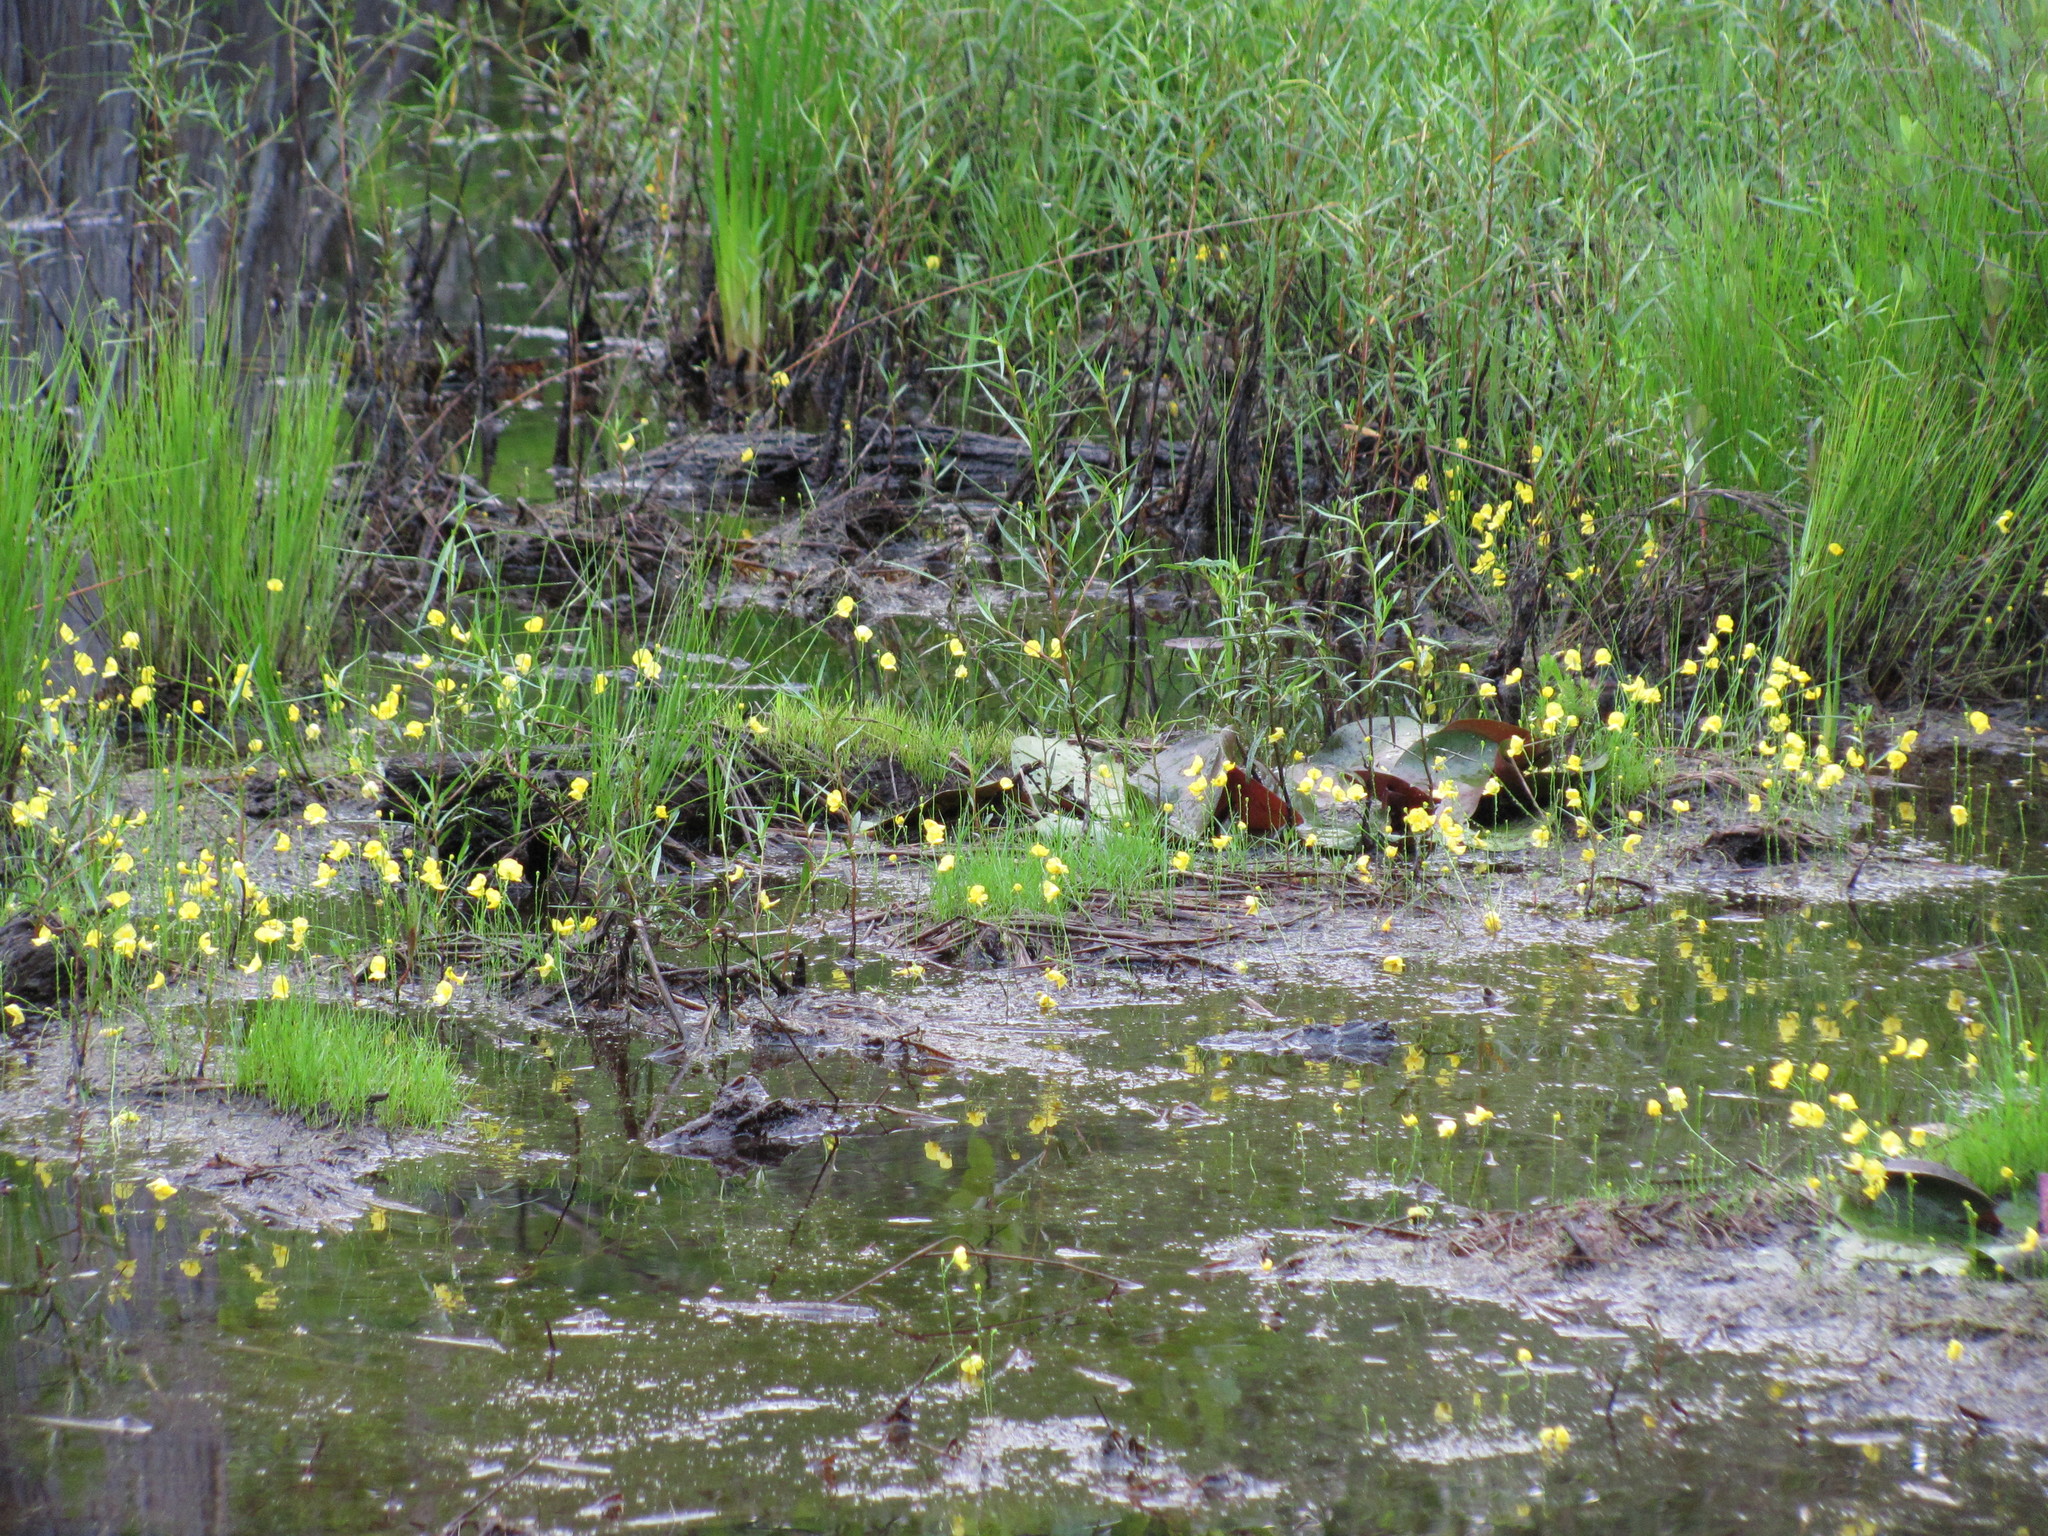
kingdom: Plantae
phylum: Tracheophyta
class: Magnoliopsida
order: Lamiales
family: Lentibulariaceae
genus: Utricularia
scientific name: Utricularia juncea
